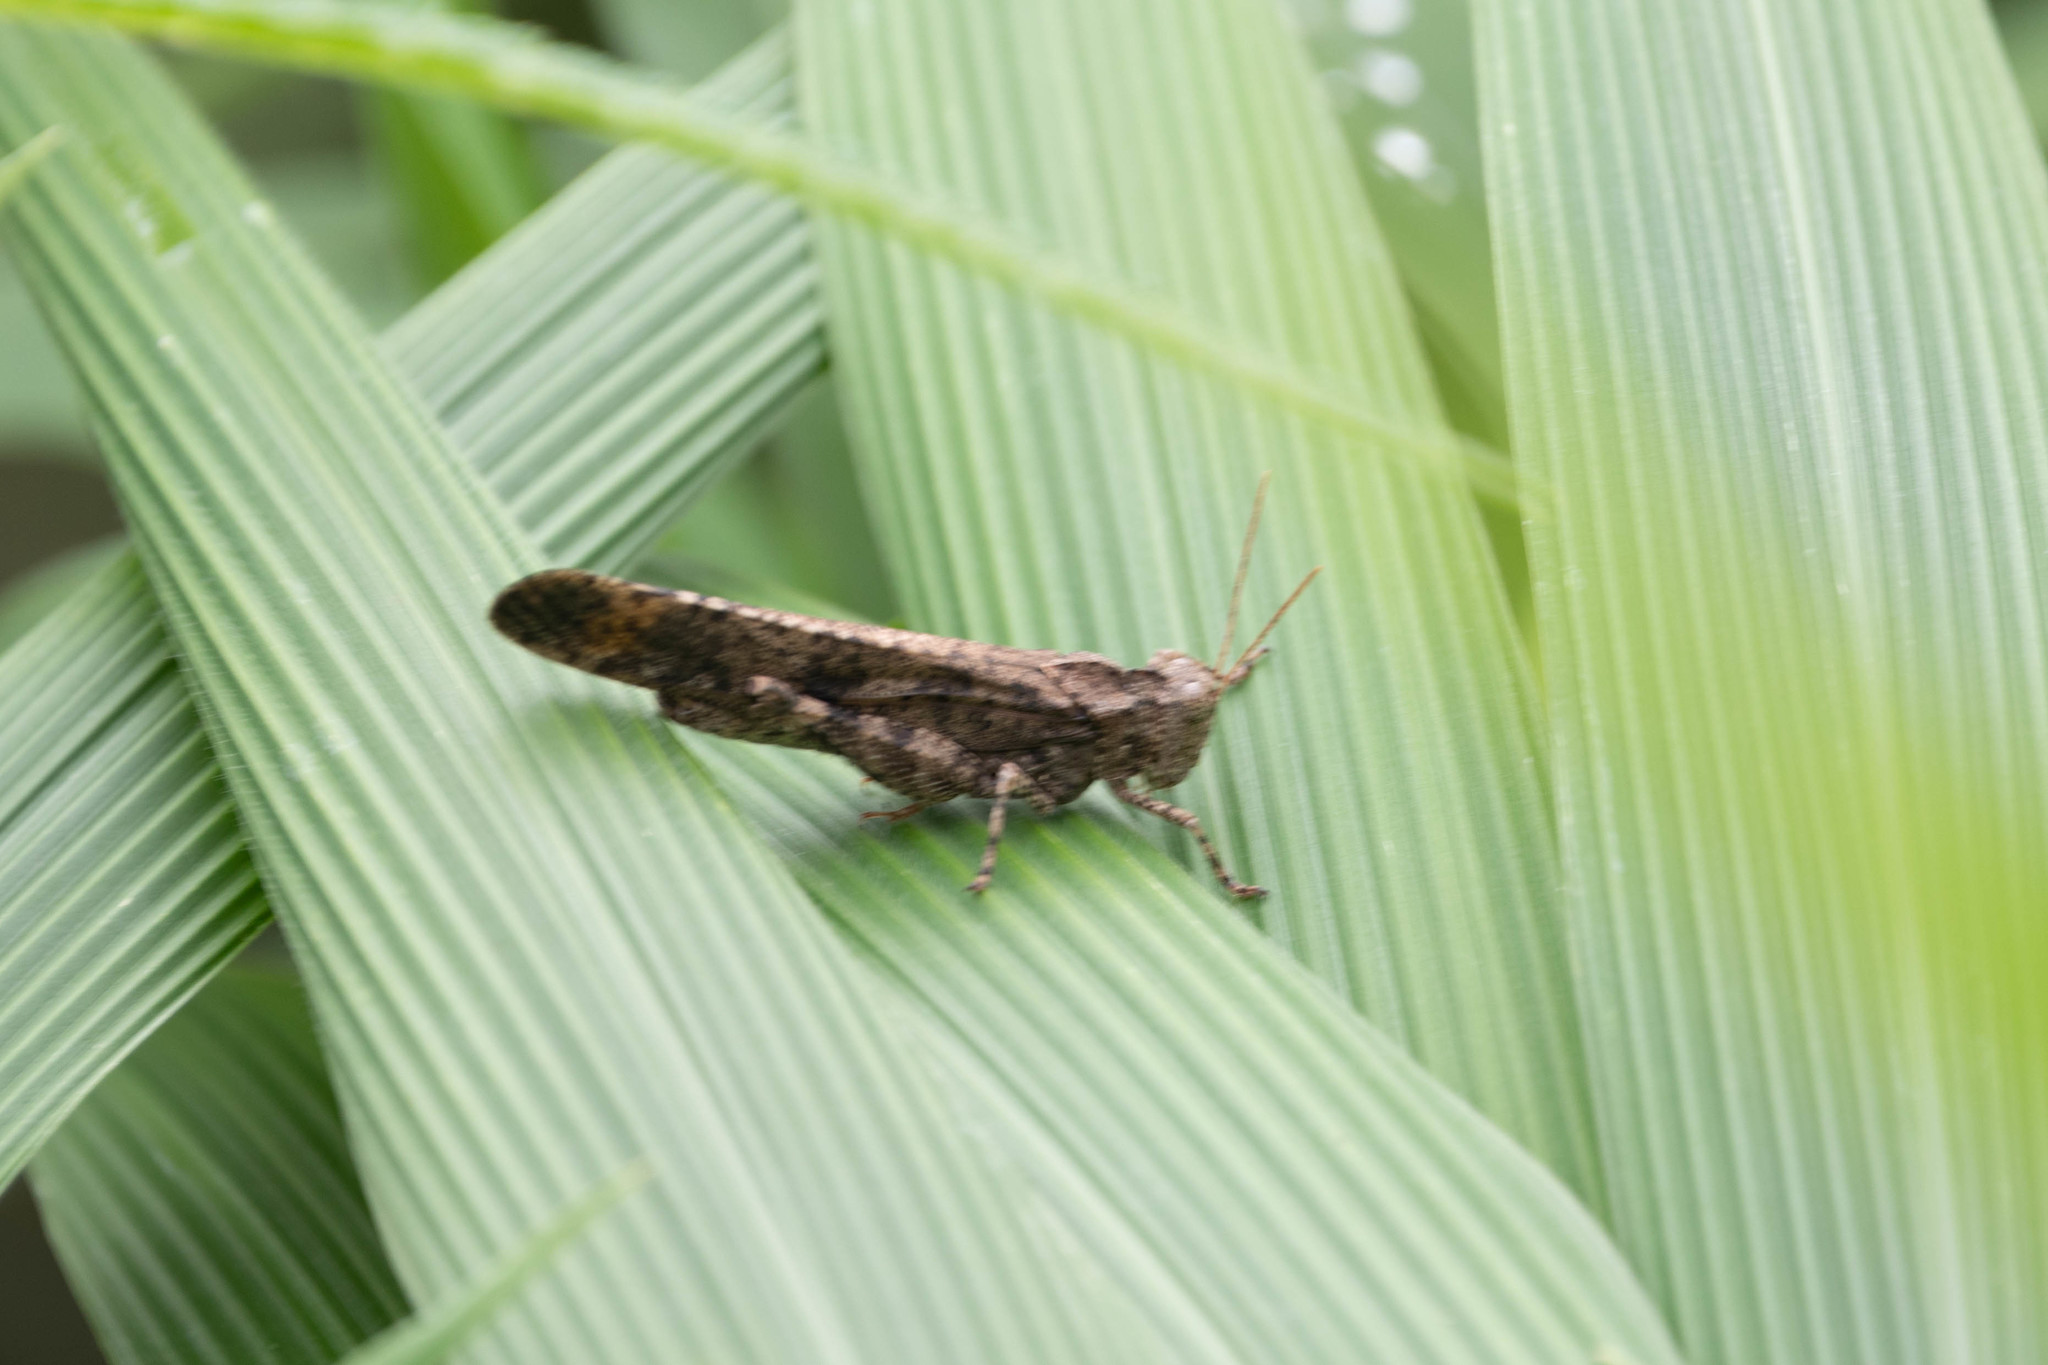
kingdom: Animalia
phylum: Arthropoda
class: Insecta
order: Orthoptera
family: Acrididae
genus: Dissosteira
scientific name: Dissosteira carolina
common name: Carolina grasshopper
